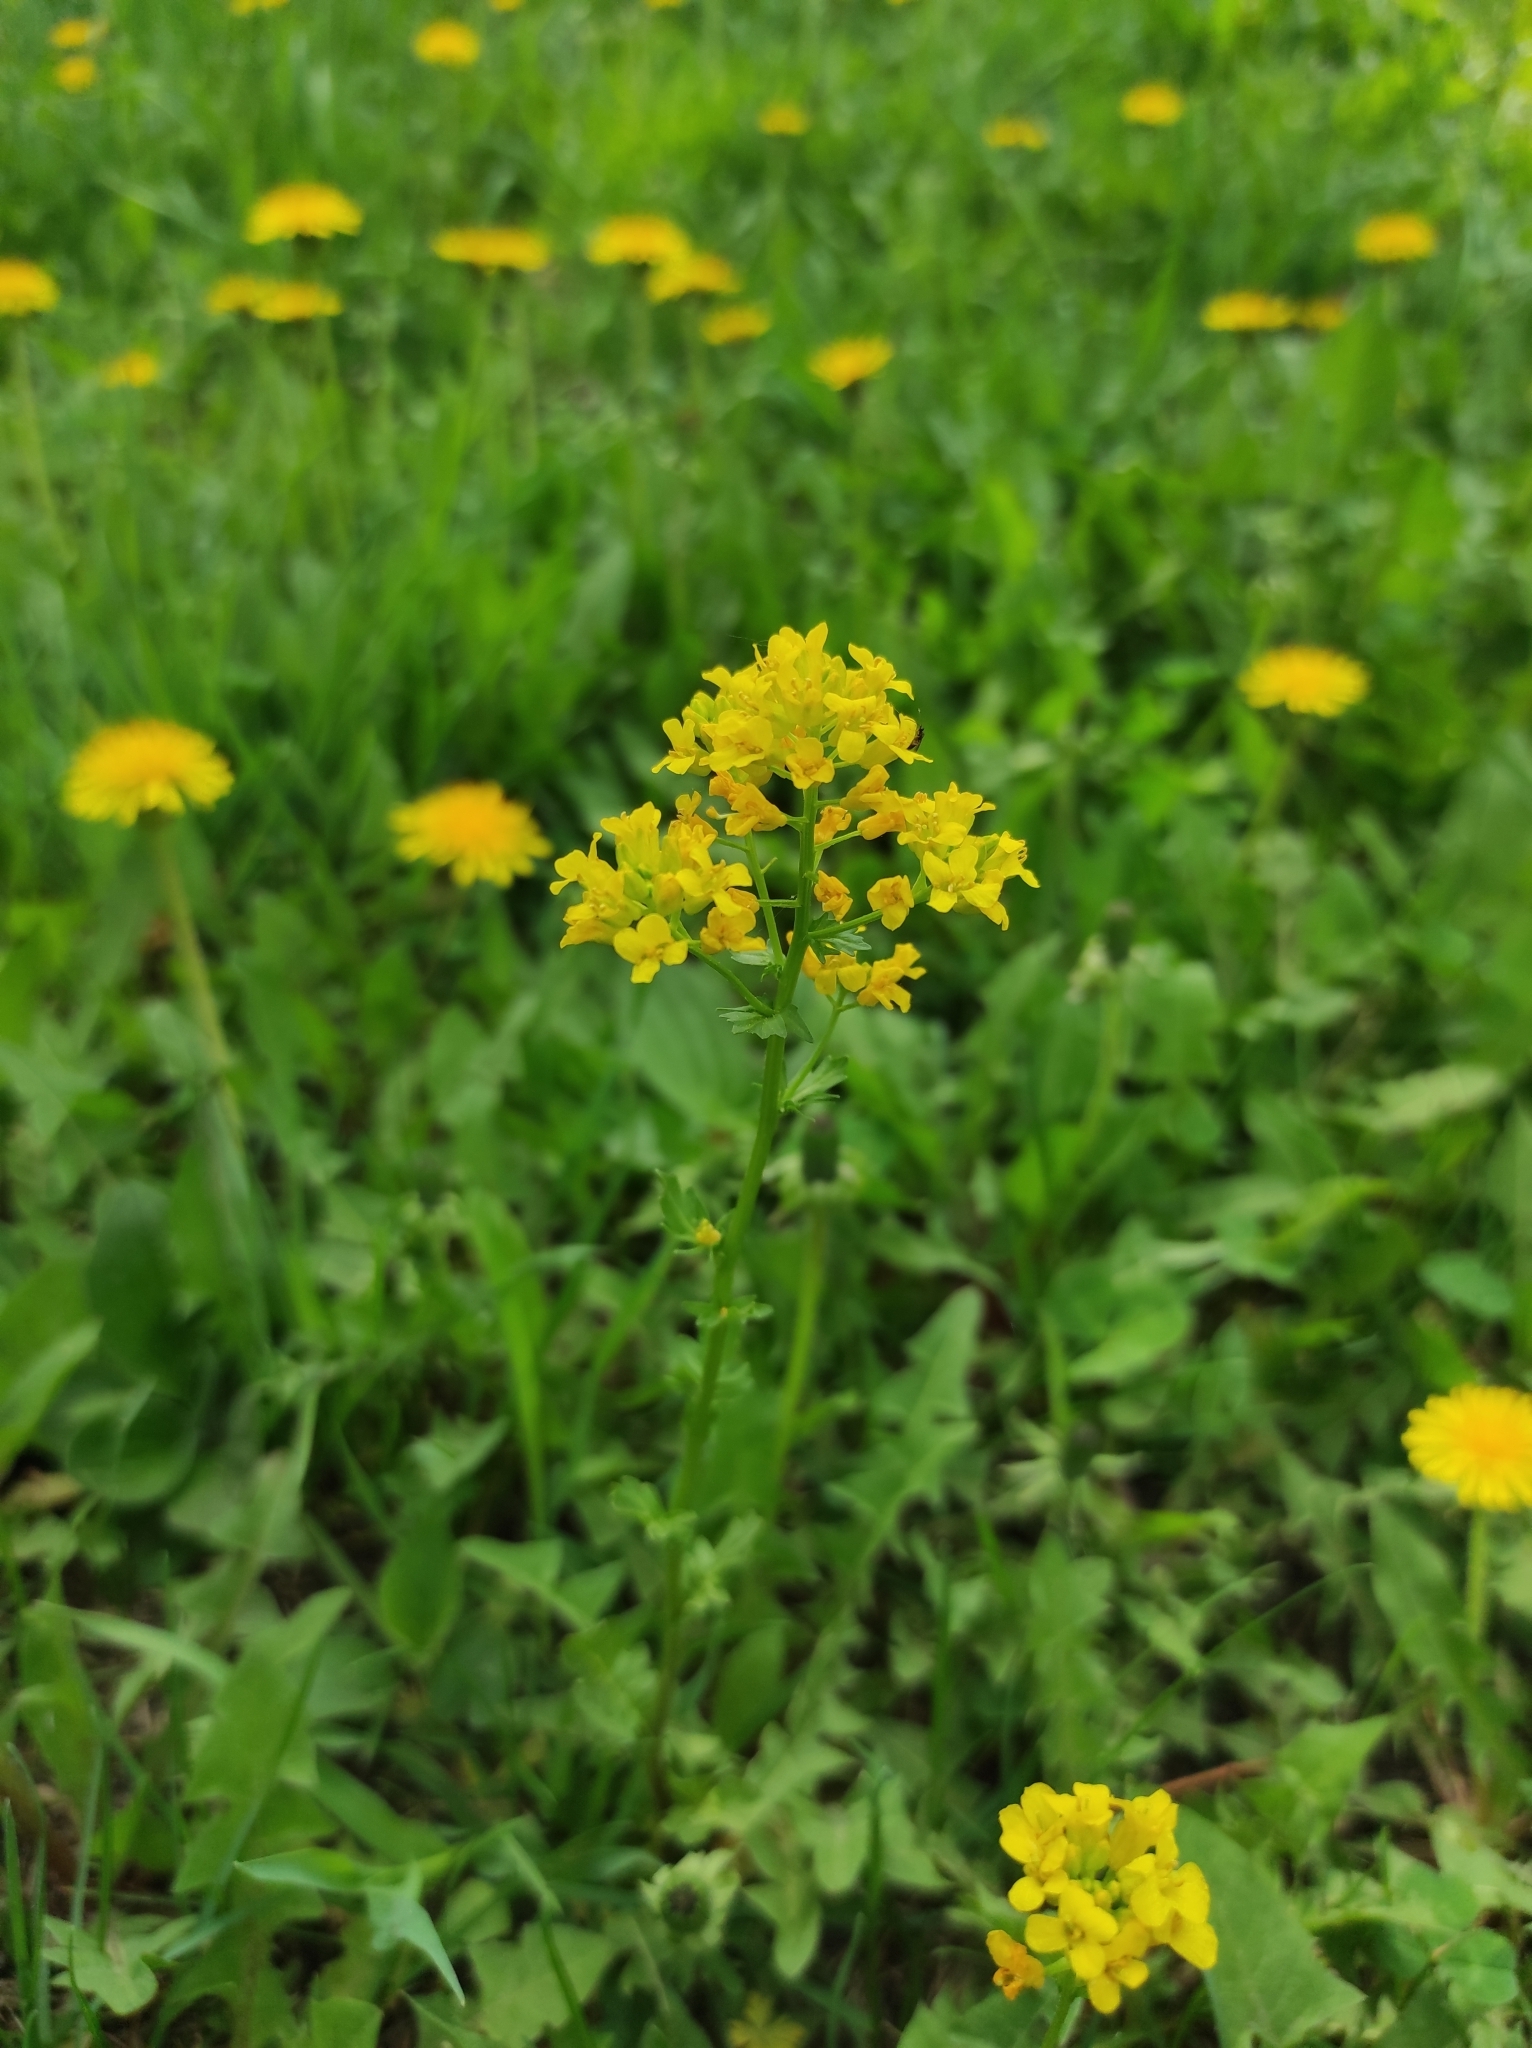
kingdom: Plantae
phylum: Tracheophyta
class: Magnoliopsida
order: Brassicales
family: Brassicaceae
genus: Barbarea
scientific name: Barbarea vulgaris
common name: Cressy-greens
